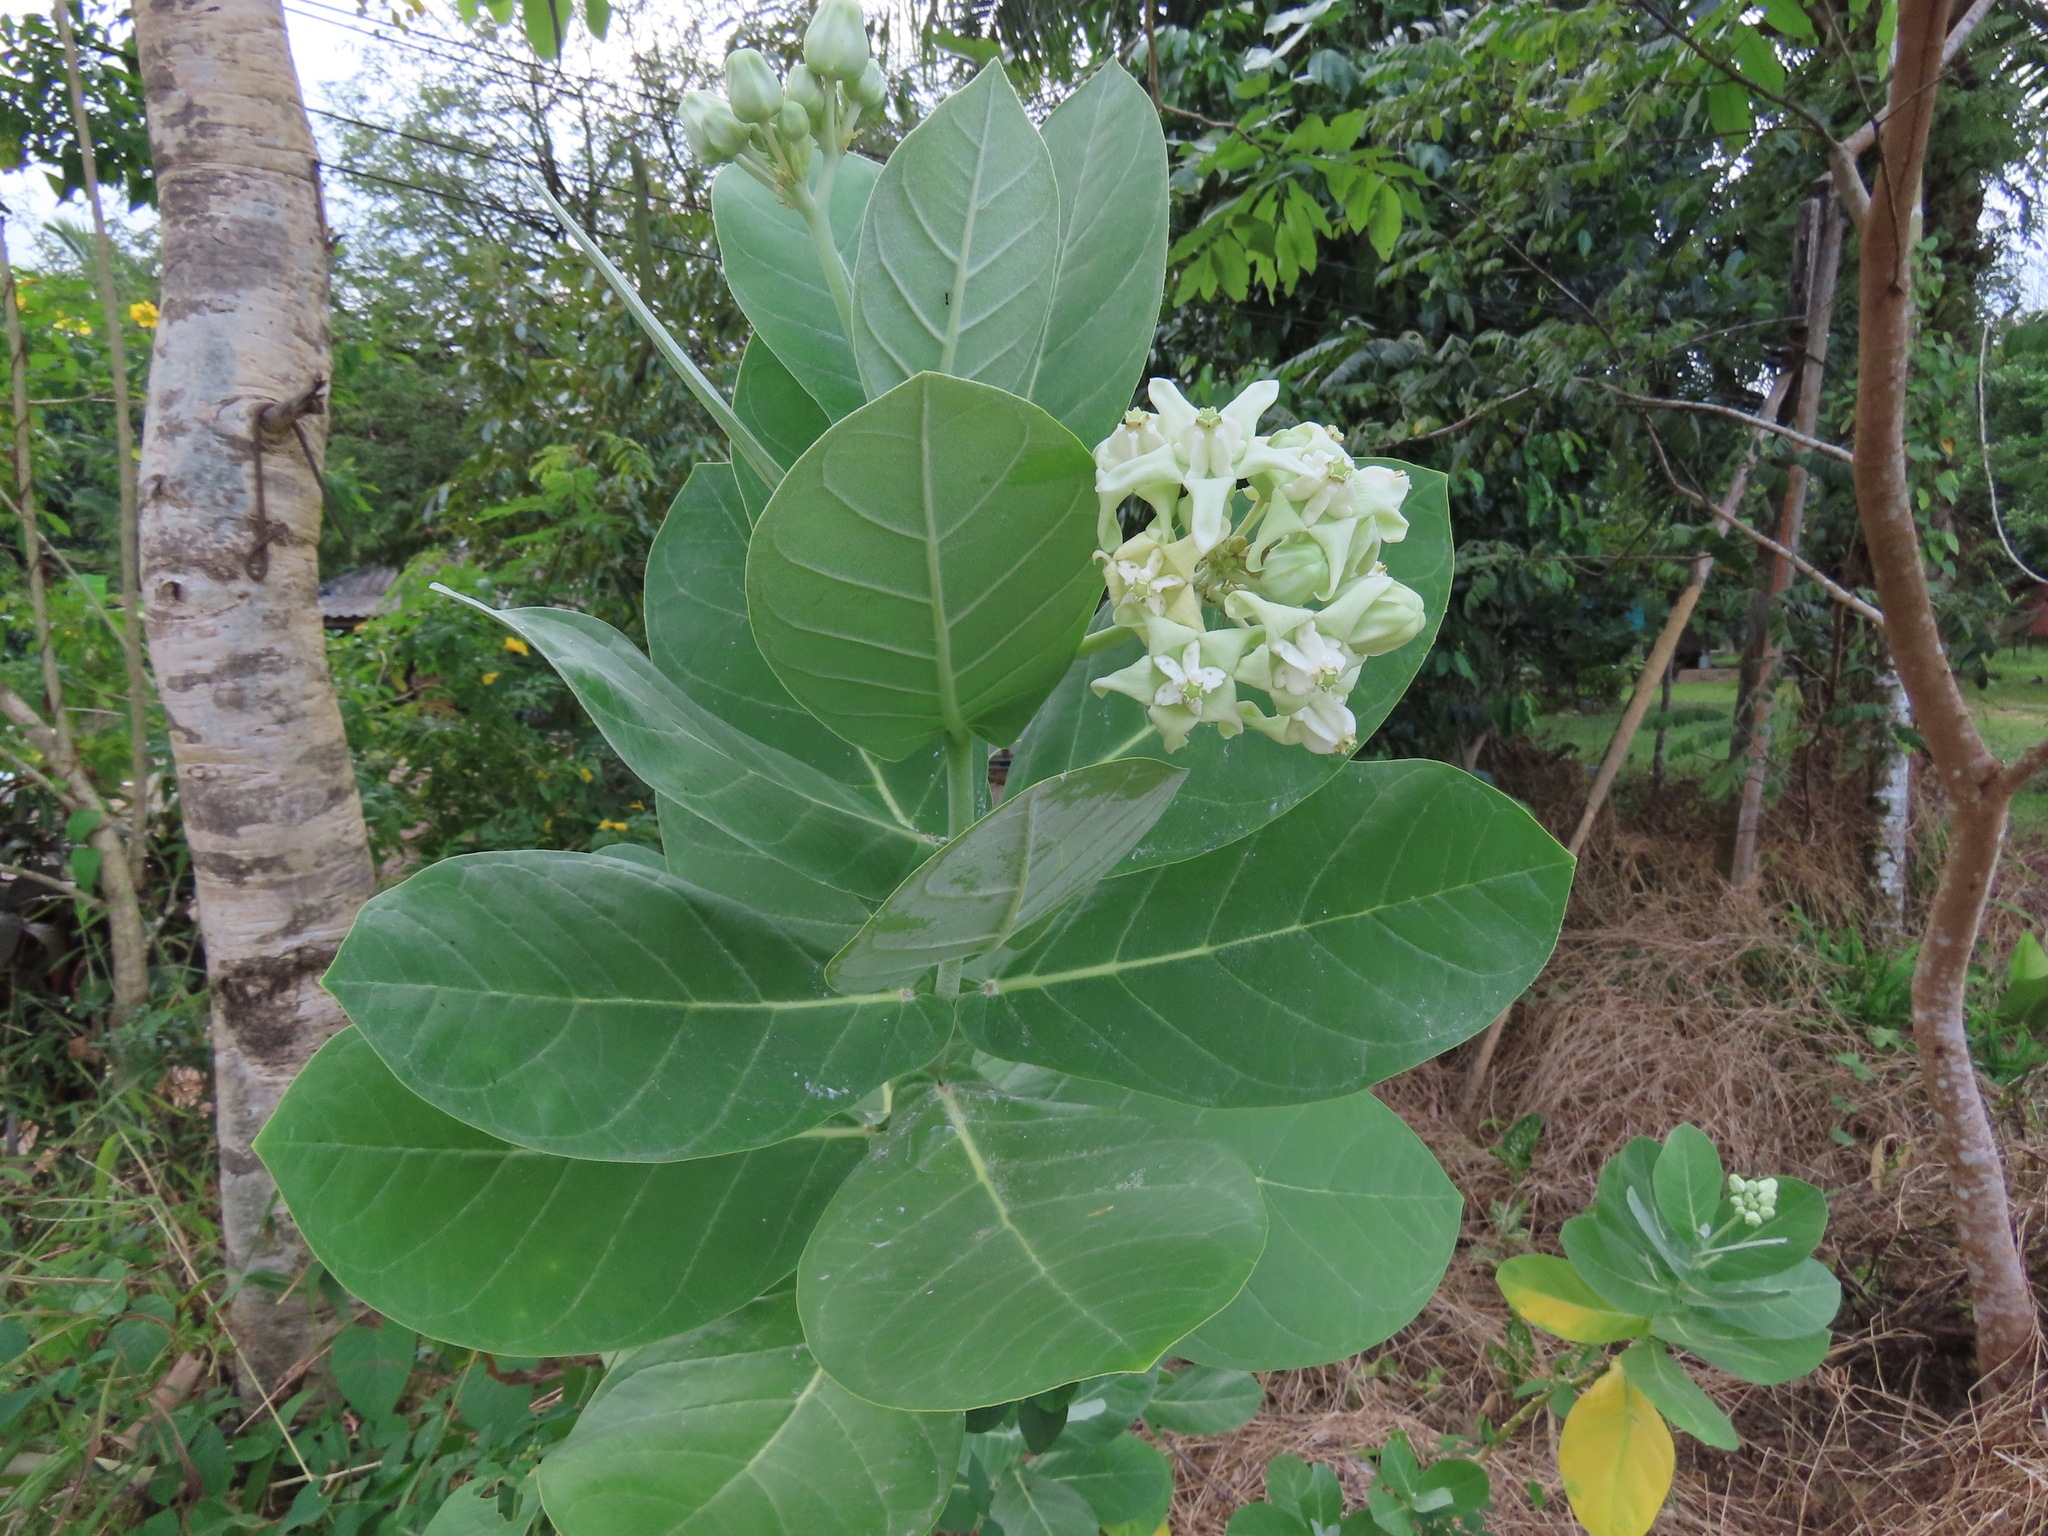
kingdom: Plantae
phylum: Tracheophyta
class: Magnoliopsida
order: Gentianales
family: Apocynaceae
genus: Calotropis
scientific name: Calotropis gigantea
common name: Crown flower
